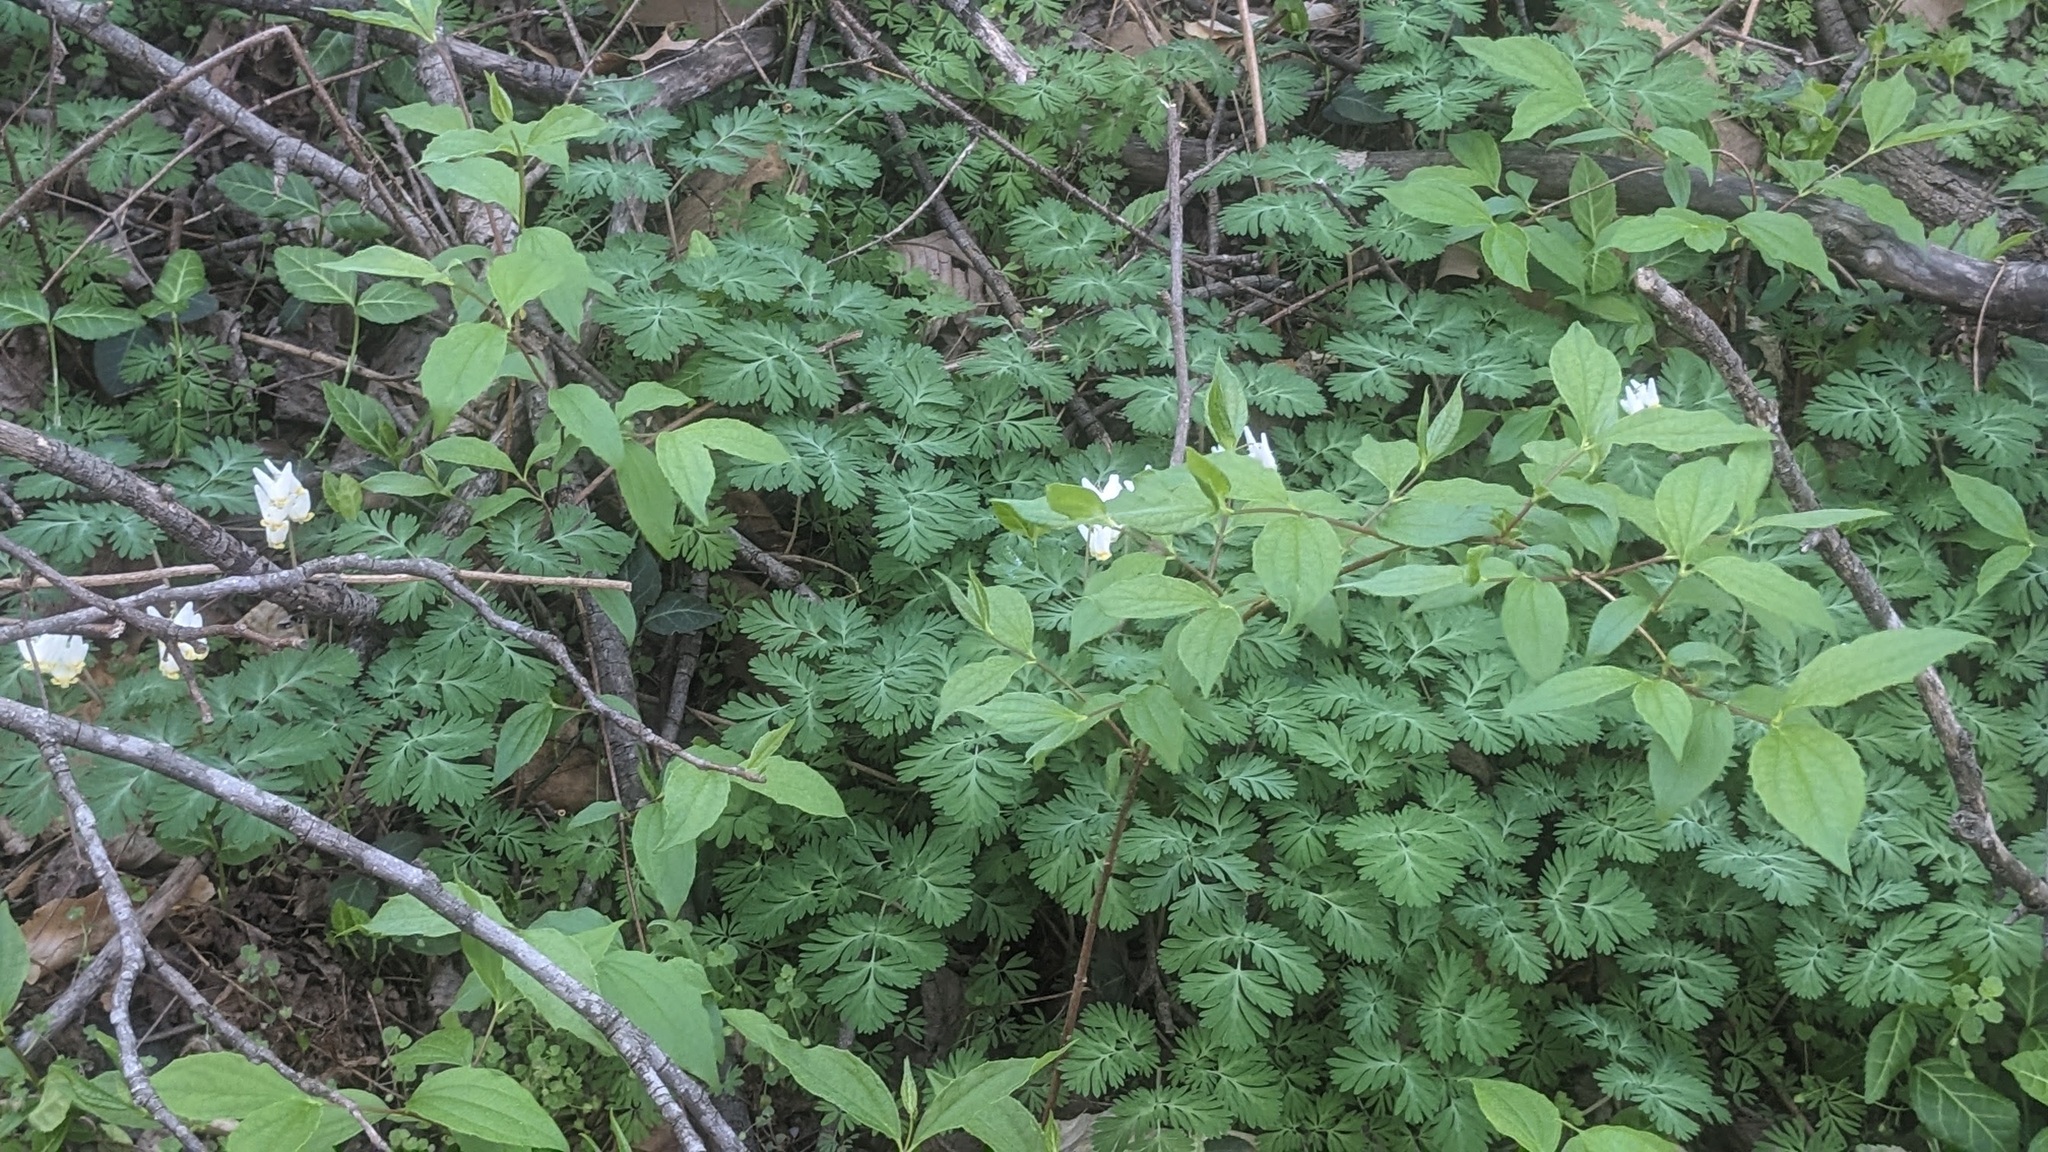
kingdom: Plantae
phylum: Tracheophyta
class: Magnoliopsida
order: Ranunculales
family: Papaveraceae
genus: Dicentra
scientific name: Dicentra cucullaria
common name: Dutchman's breeches
